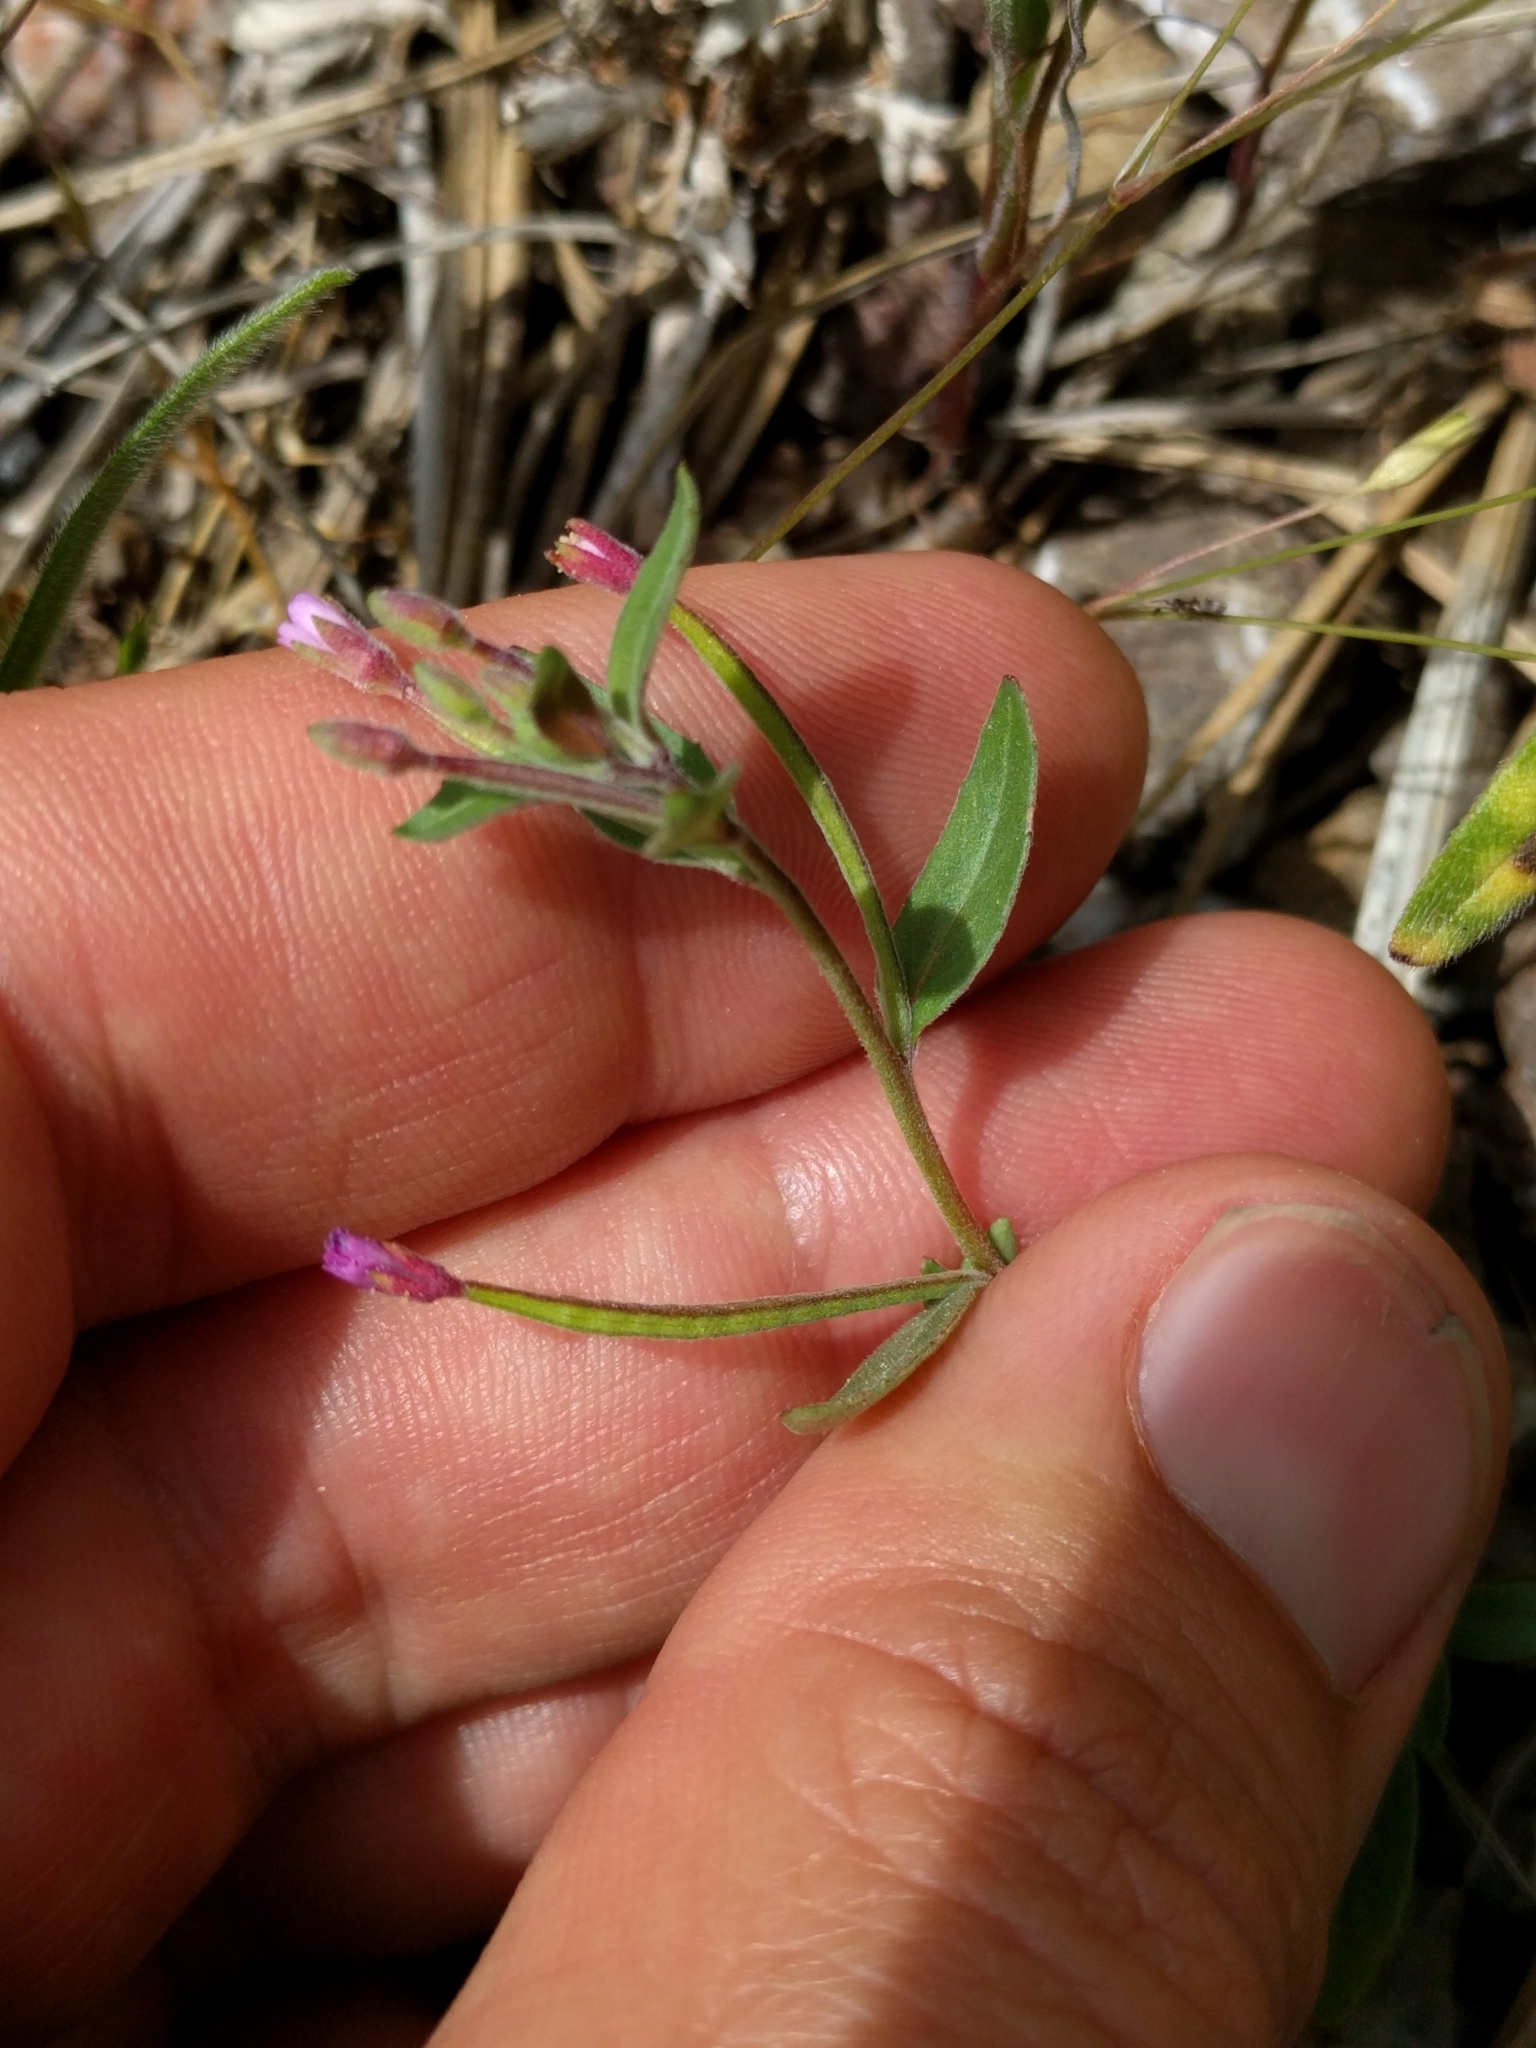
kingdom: Plantae
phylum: Tracheophyta
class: Magnoliopsida
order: Myrtales
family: Onagraceae
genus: Epilobium
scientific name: Epilobium minutum
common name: Chaparral willowherb
